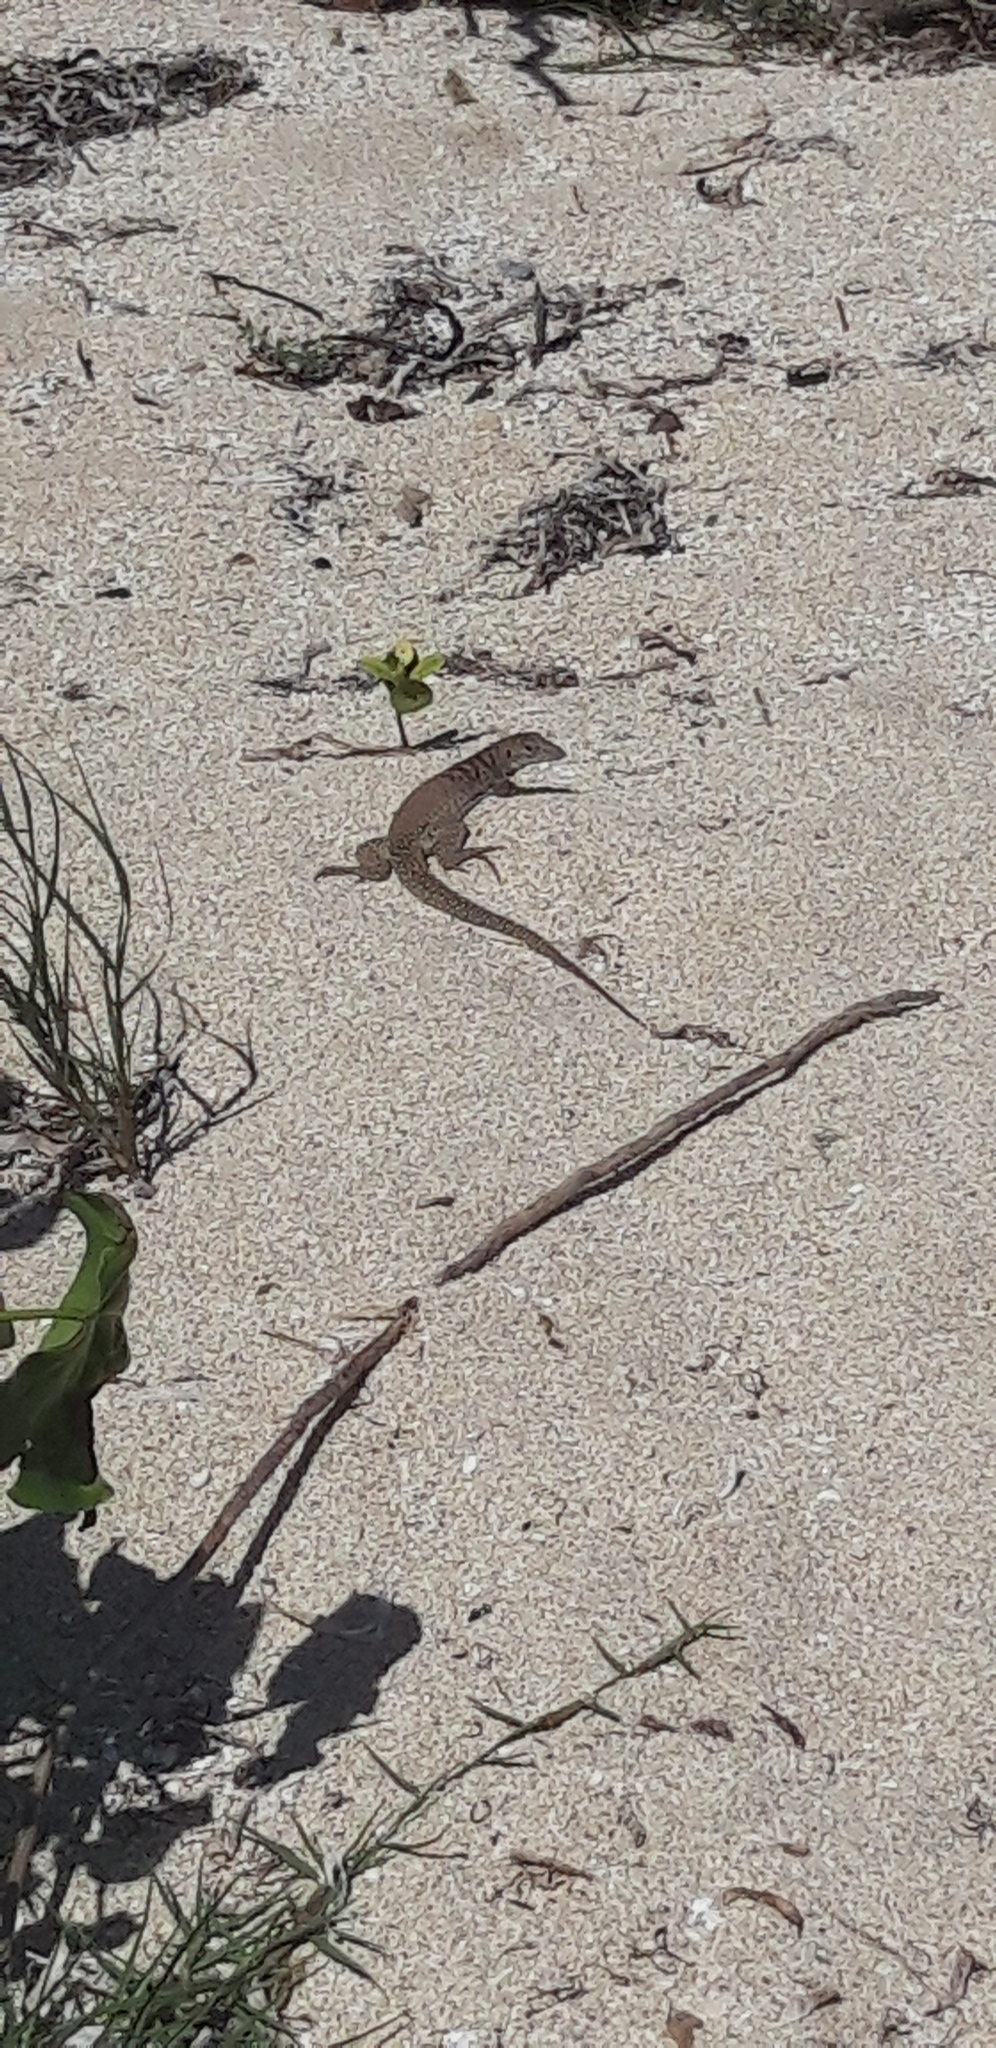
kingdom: Animalia
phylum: Chordata
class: Squamata
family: Teiidae
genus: Pholidoscelis
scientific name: Pholidoscelis plei
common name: Anguilla bank ameiva
